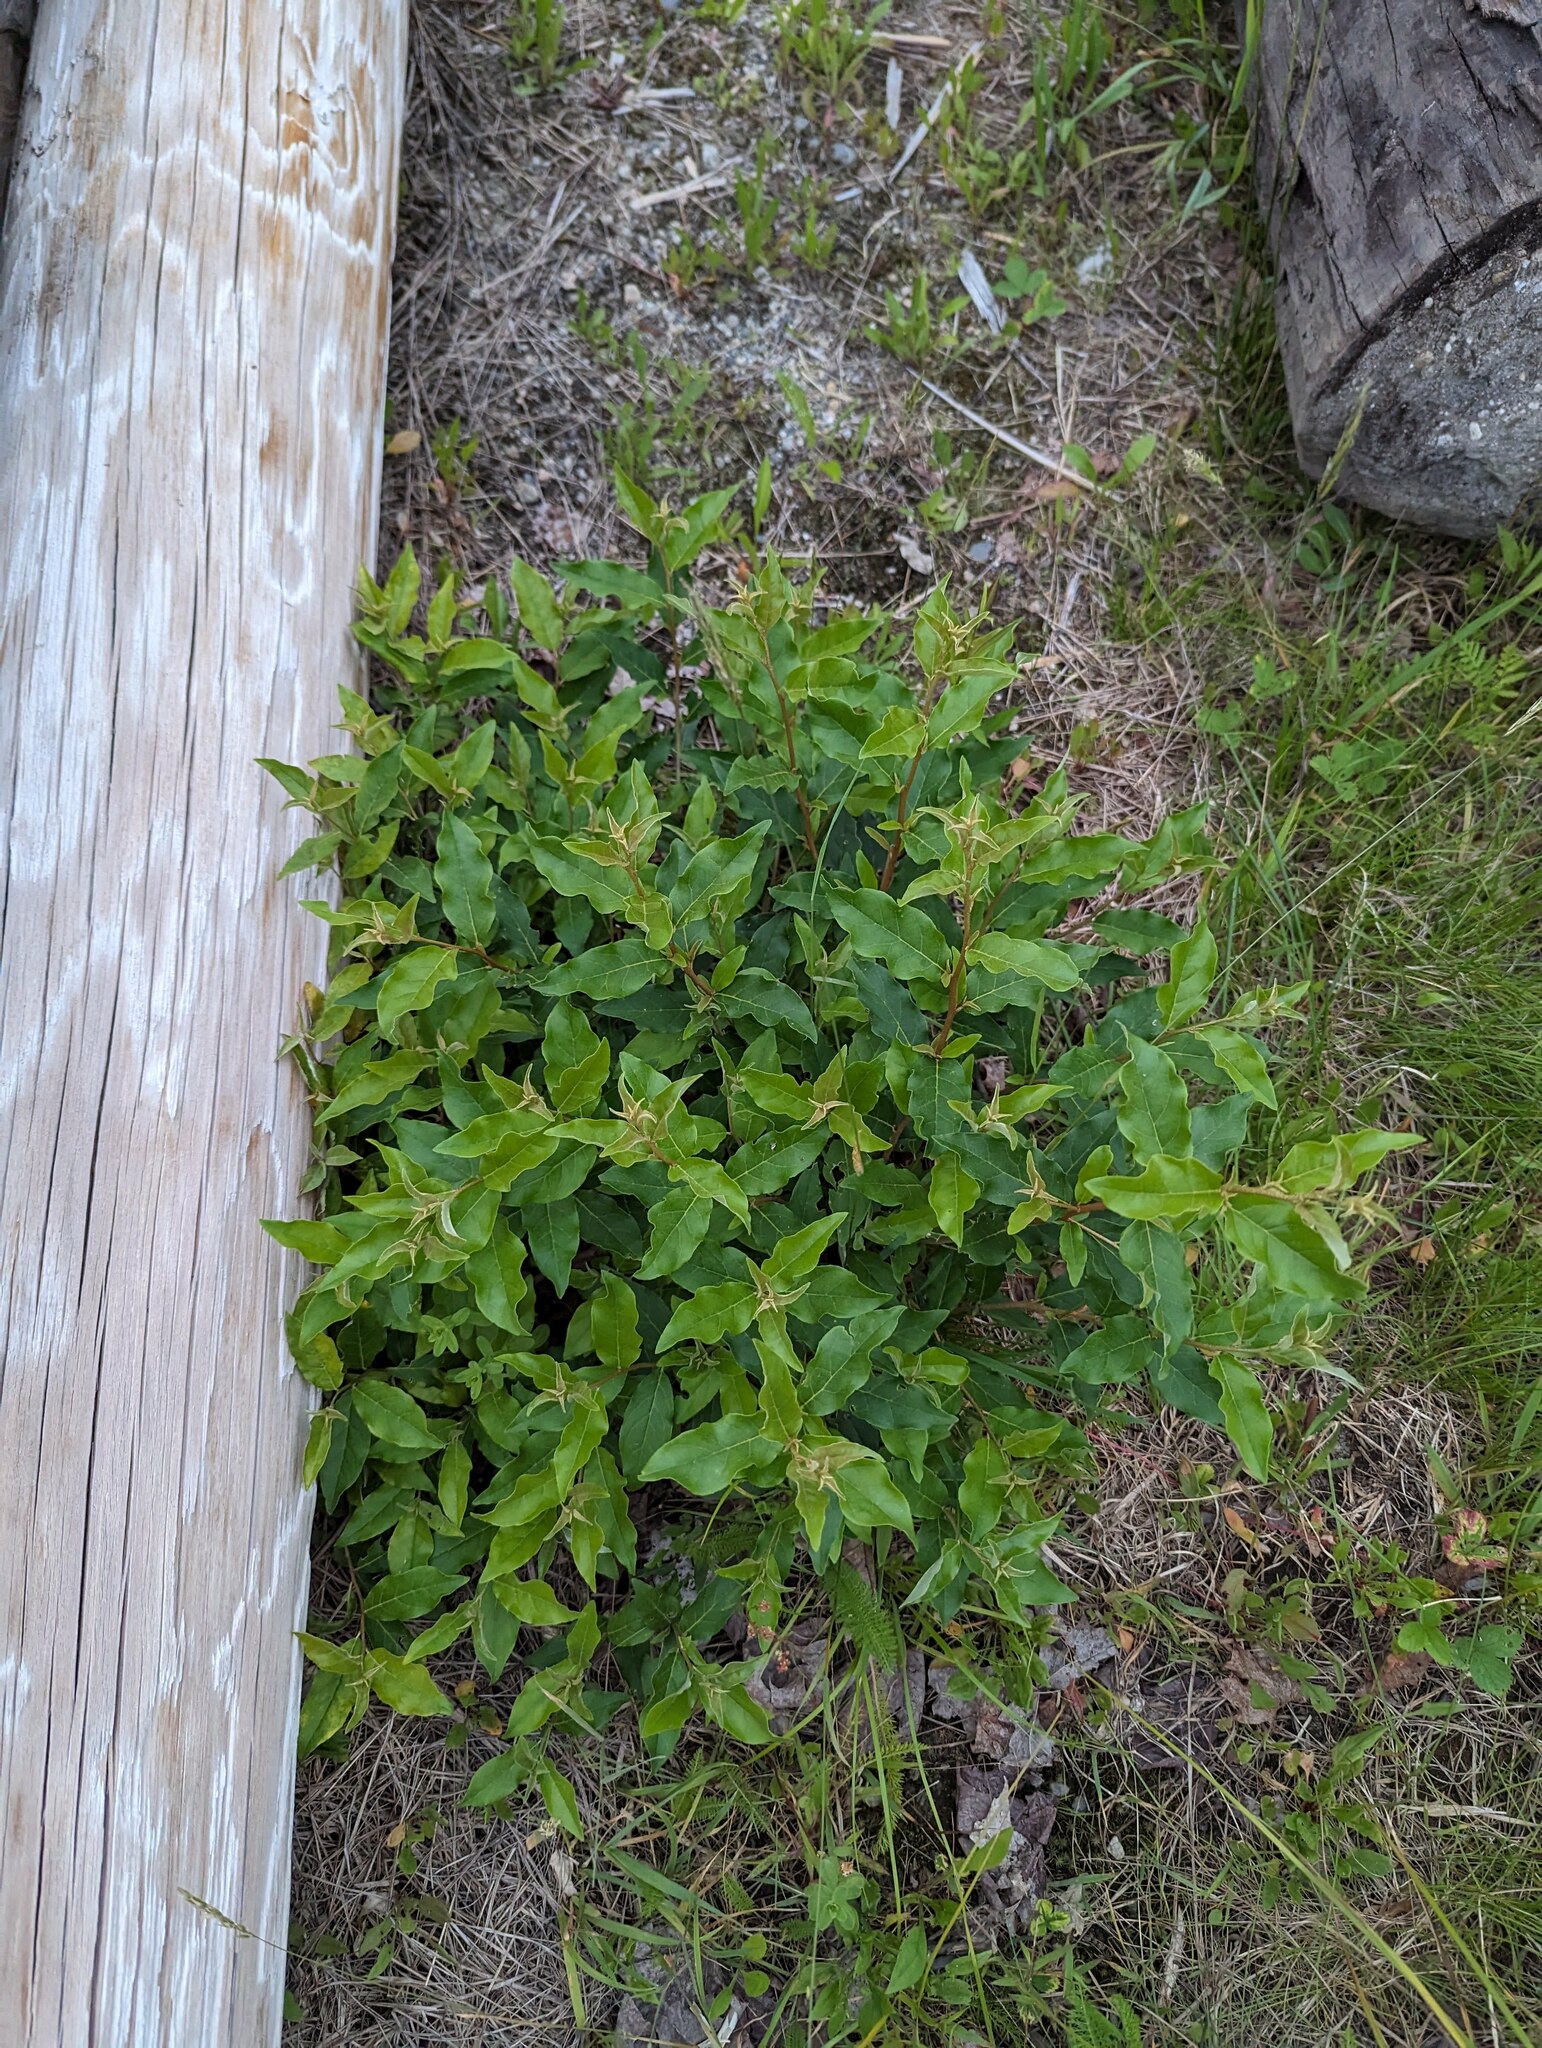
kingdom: Plantae
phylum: Tracheophyta
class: Magnoliopsida
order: Rosales
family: Elaeagnaceae
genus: Elaeagnus
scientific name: Elaeagnus umbellata
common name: Autumn olive
